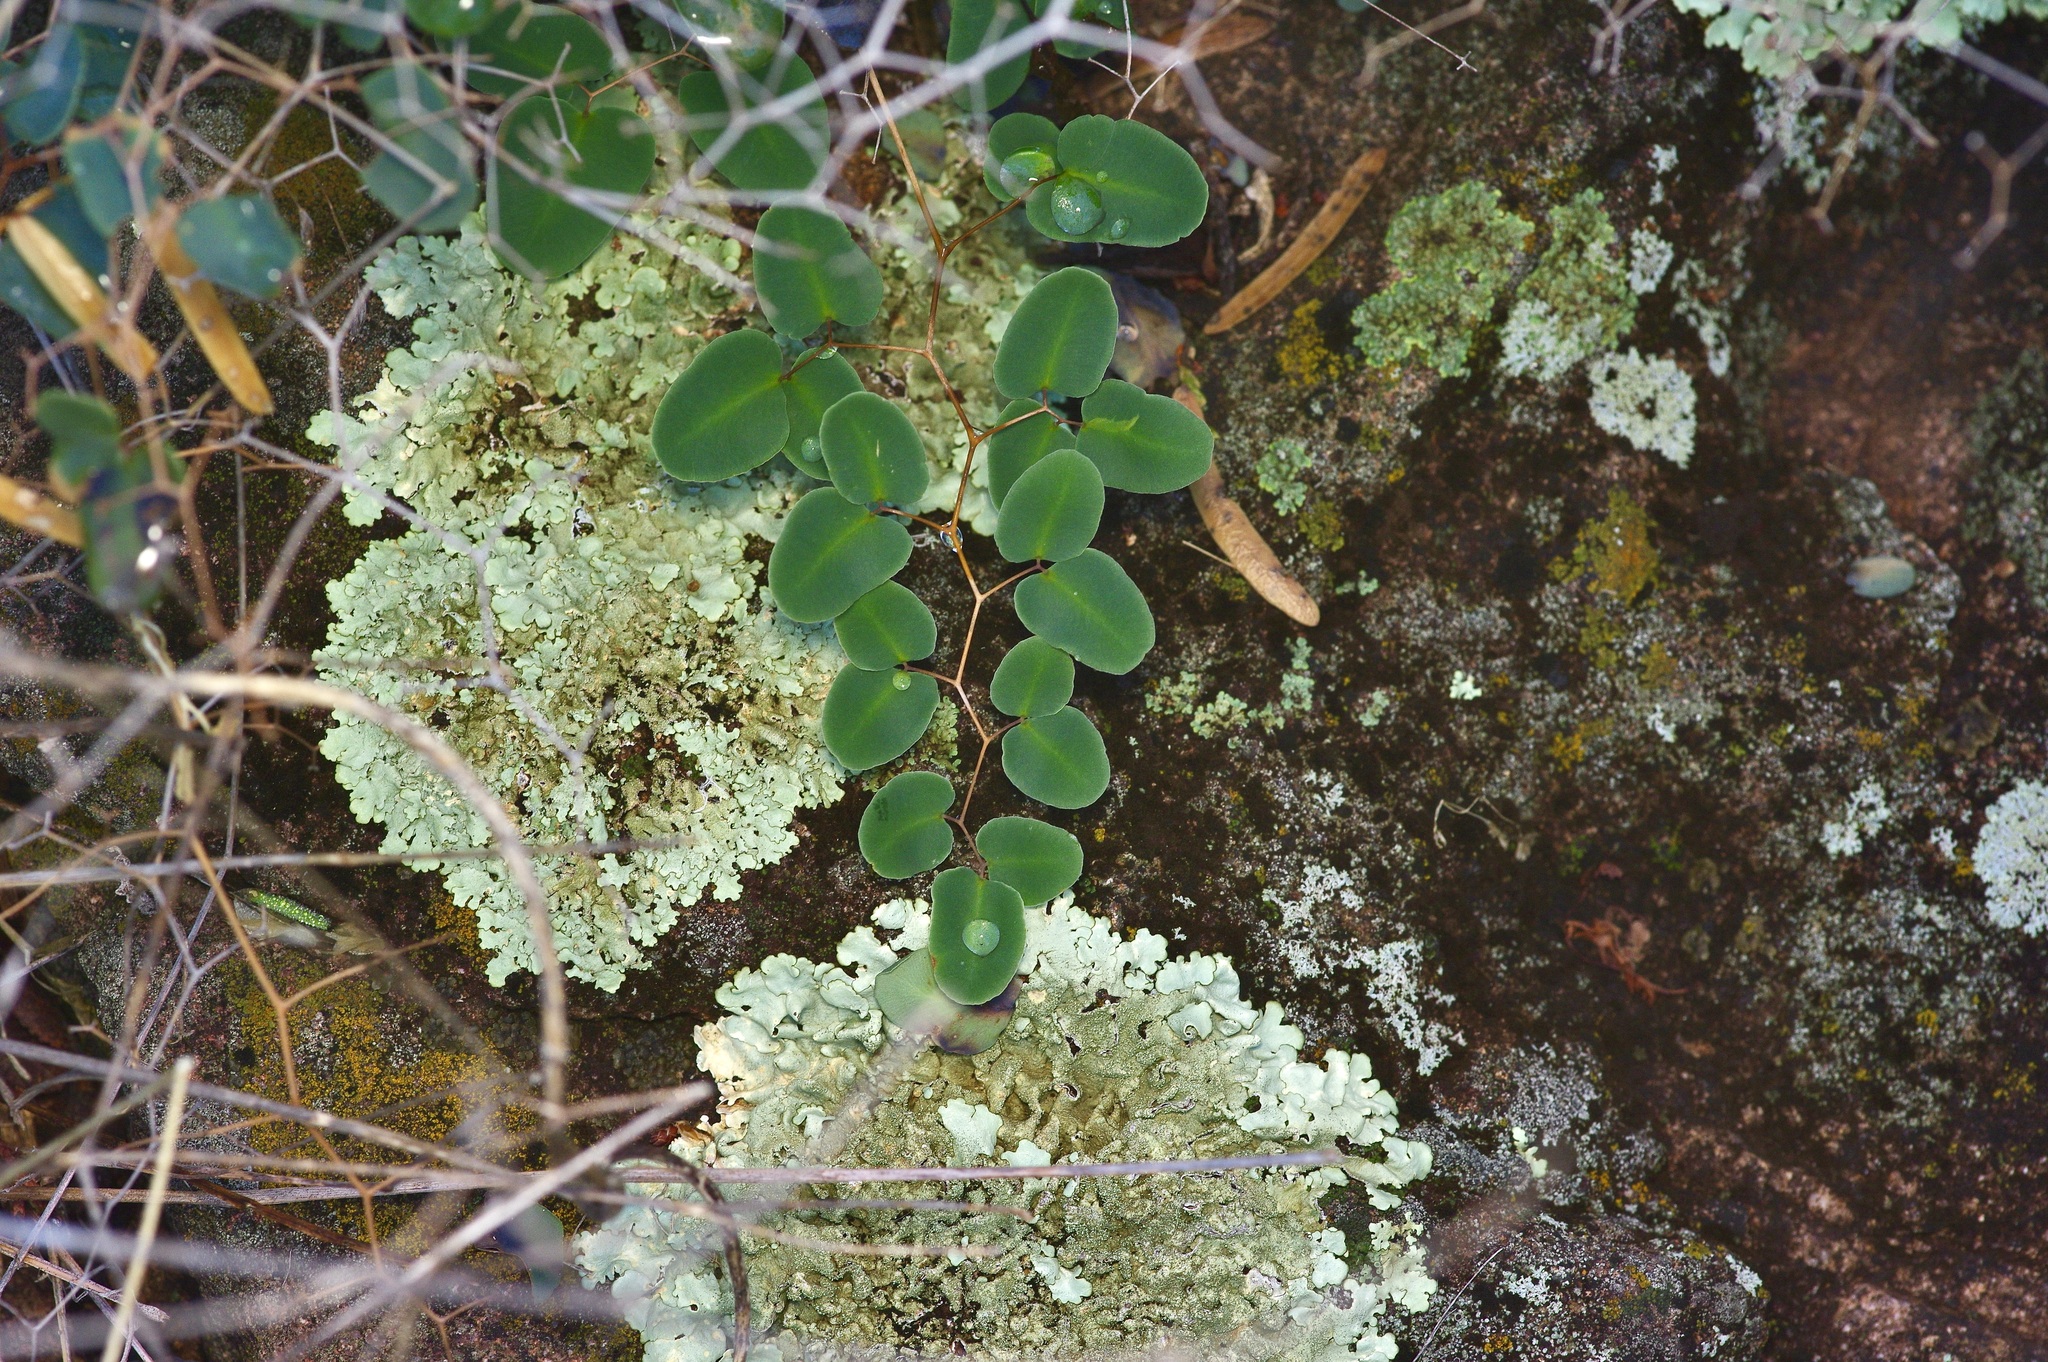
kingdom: Plantae
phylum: Tracheophyta
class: Polypodiopsida
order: Polypodiales
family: Pteridaceae
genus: Pellaea
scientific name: Pellaea ovata
